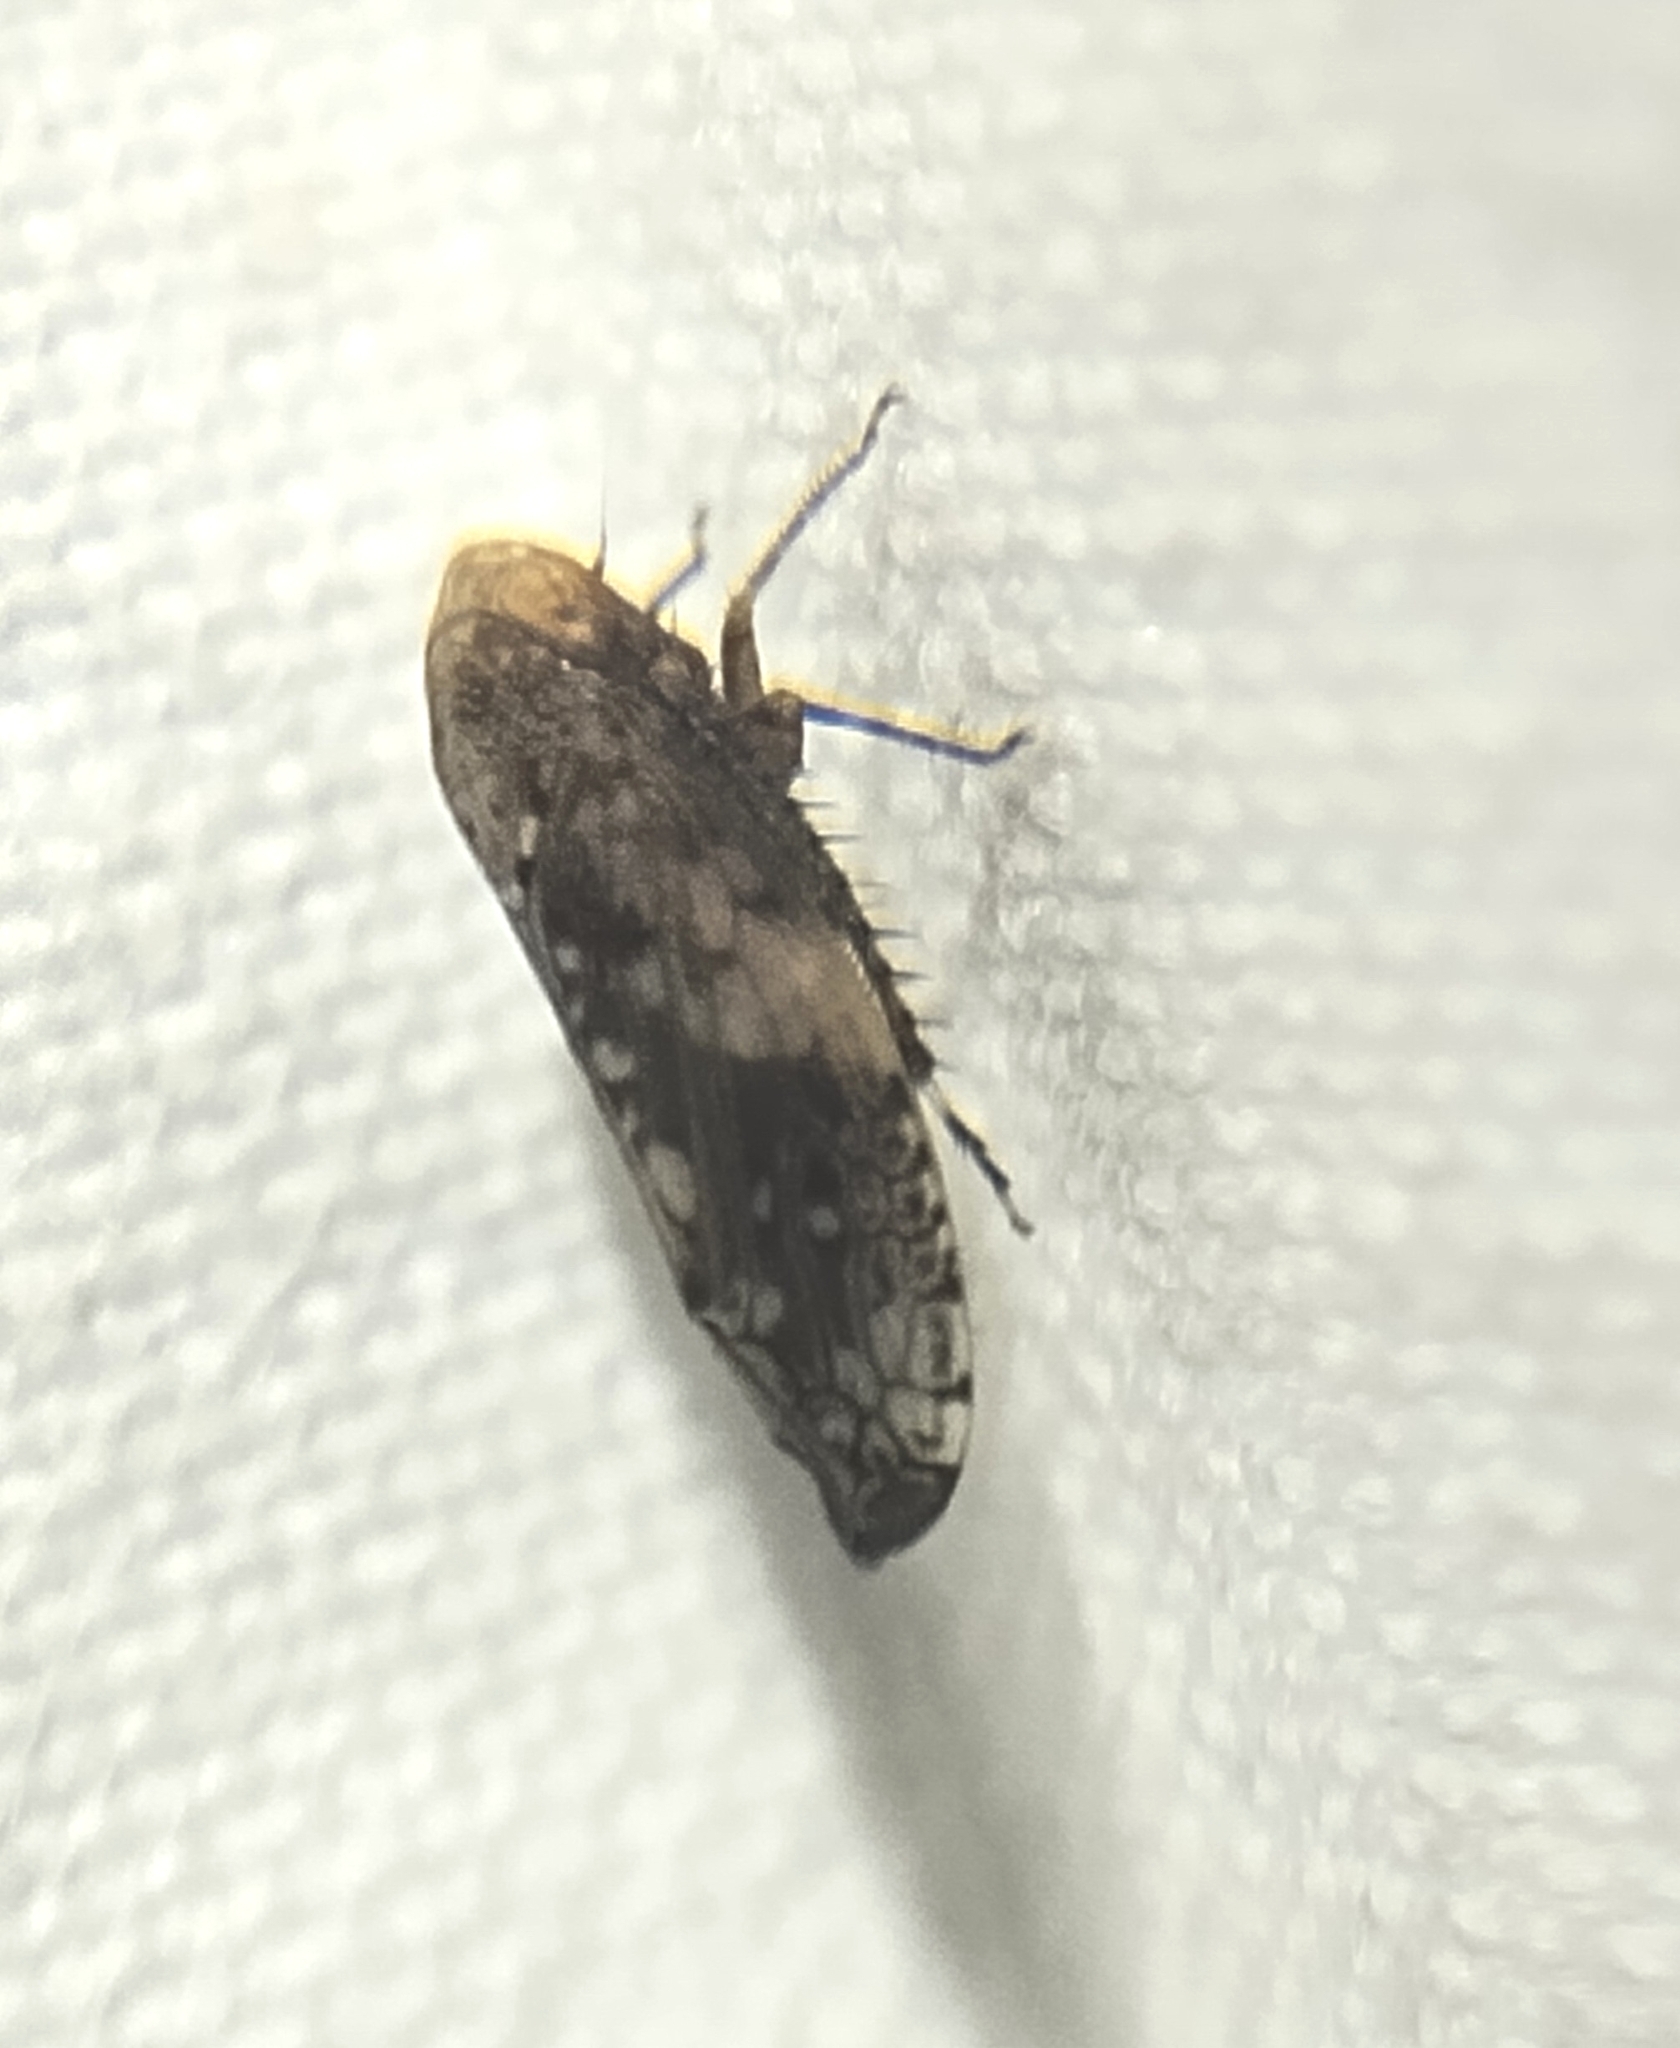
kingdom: Animalia
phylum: Arthropoda
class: Insecta
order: Hemiptera
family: Cicadellidae
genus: Menosoma
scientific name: Menosoma cinctum
